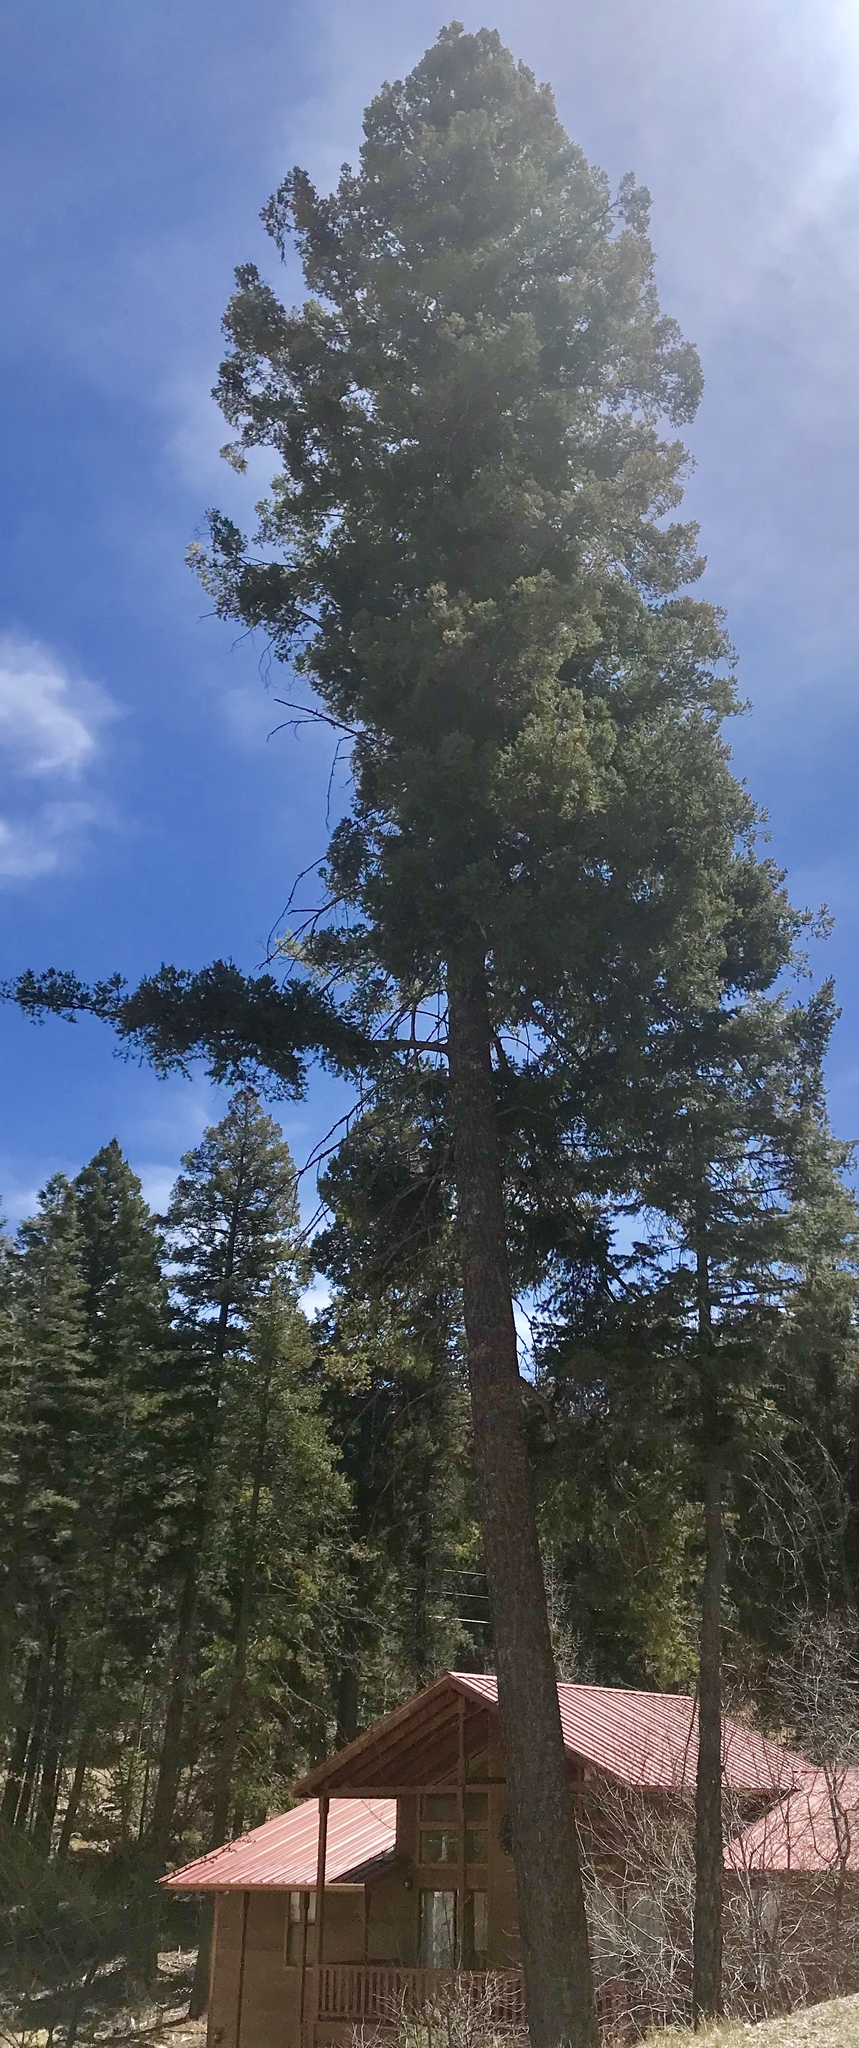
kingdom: Plantae
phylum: Tracheophyta
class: Pinopsida
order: Pinales
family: Pinaceae
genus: Pseudotsuga
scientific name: Pseudotsuga menziesii
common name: Douglas fir
